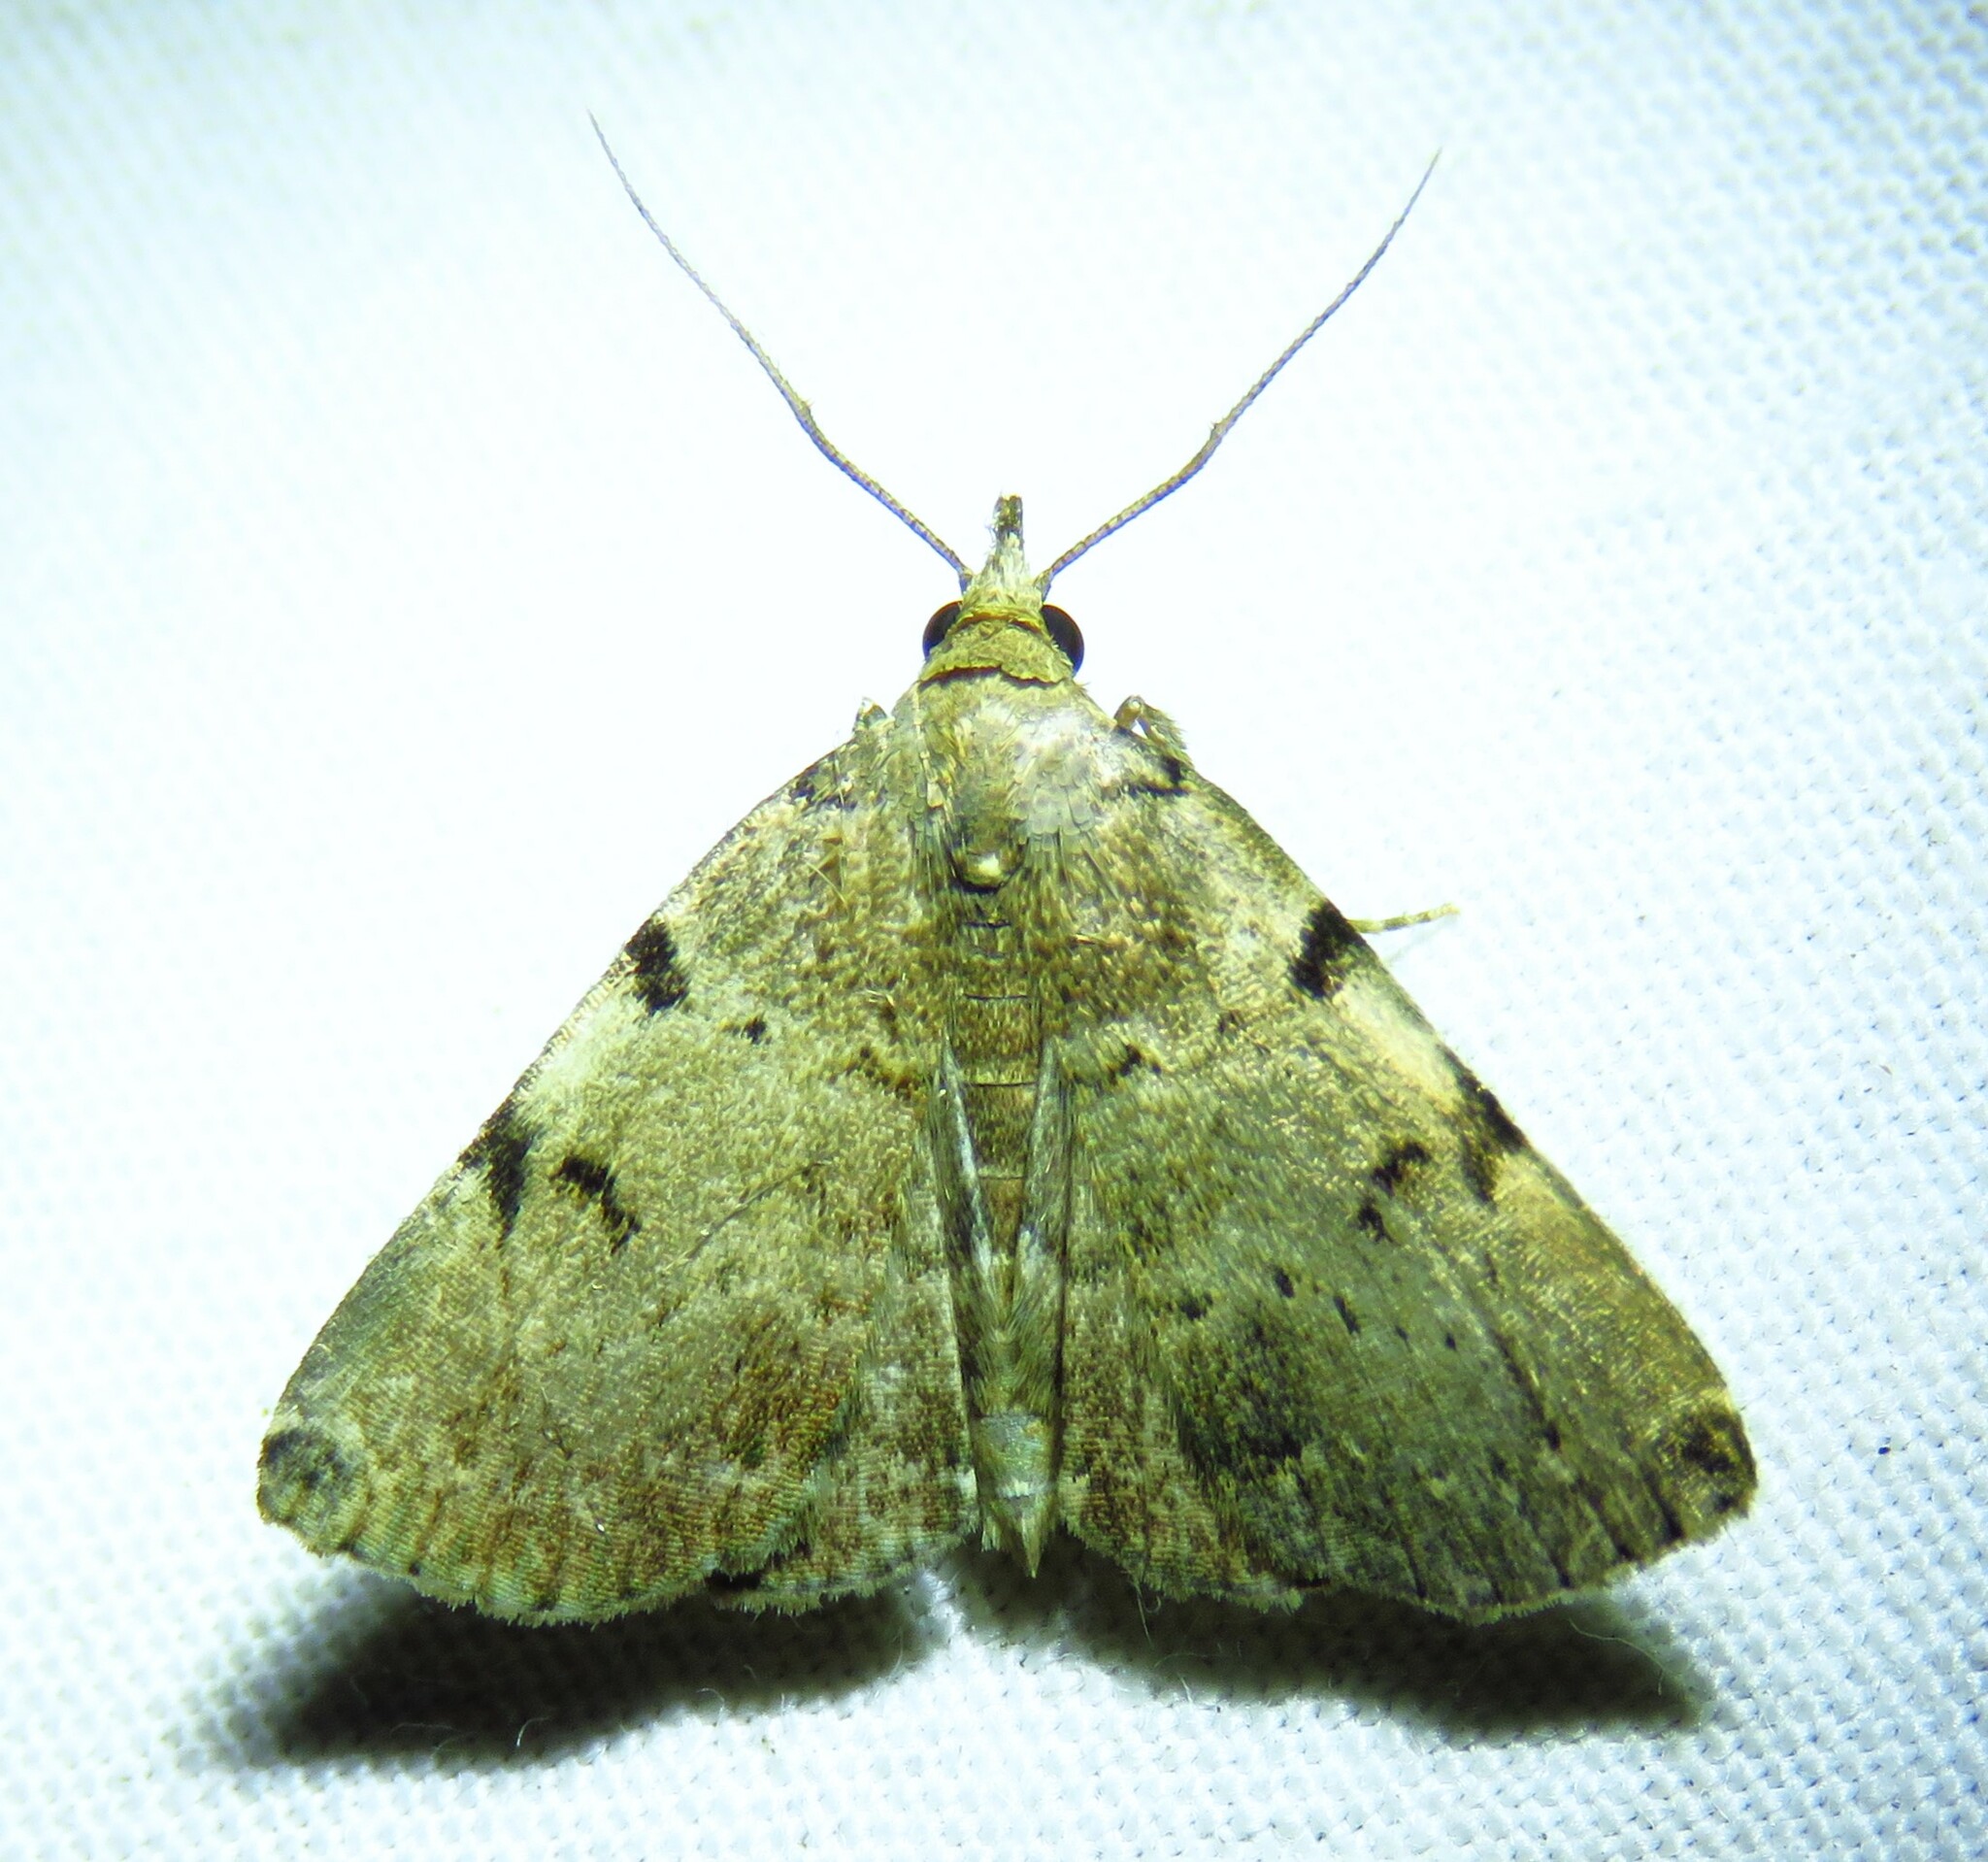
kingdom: Animalia
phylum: Arthropoda
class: Insecta
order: Lepidoptera
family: Erebidae
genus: Zanclognatha
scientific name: Zanclognatha lituralis
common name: Lettered fan-foot
